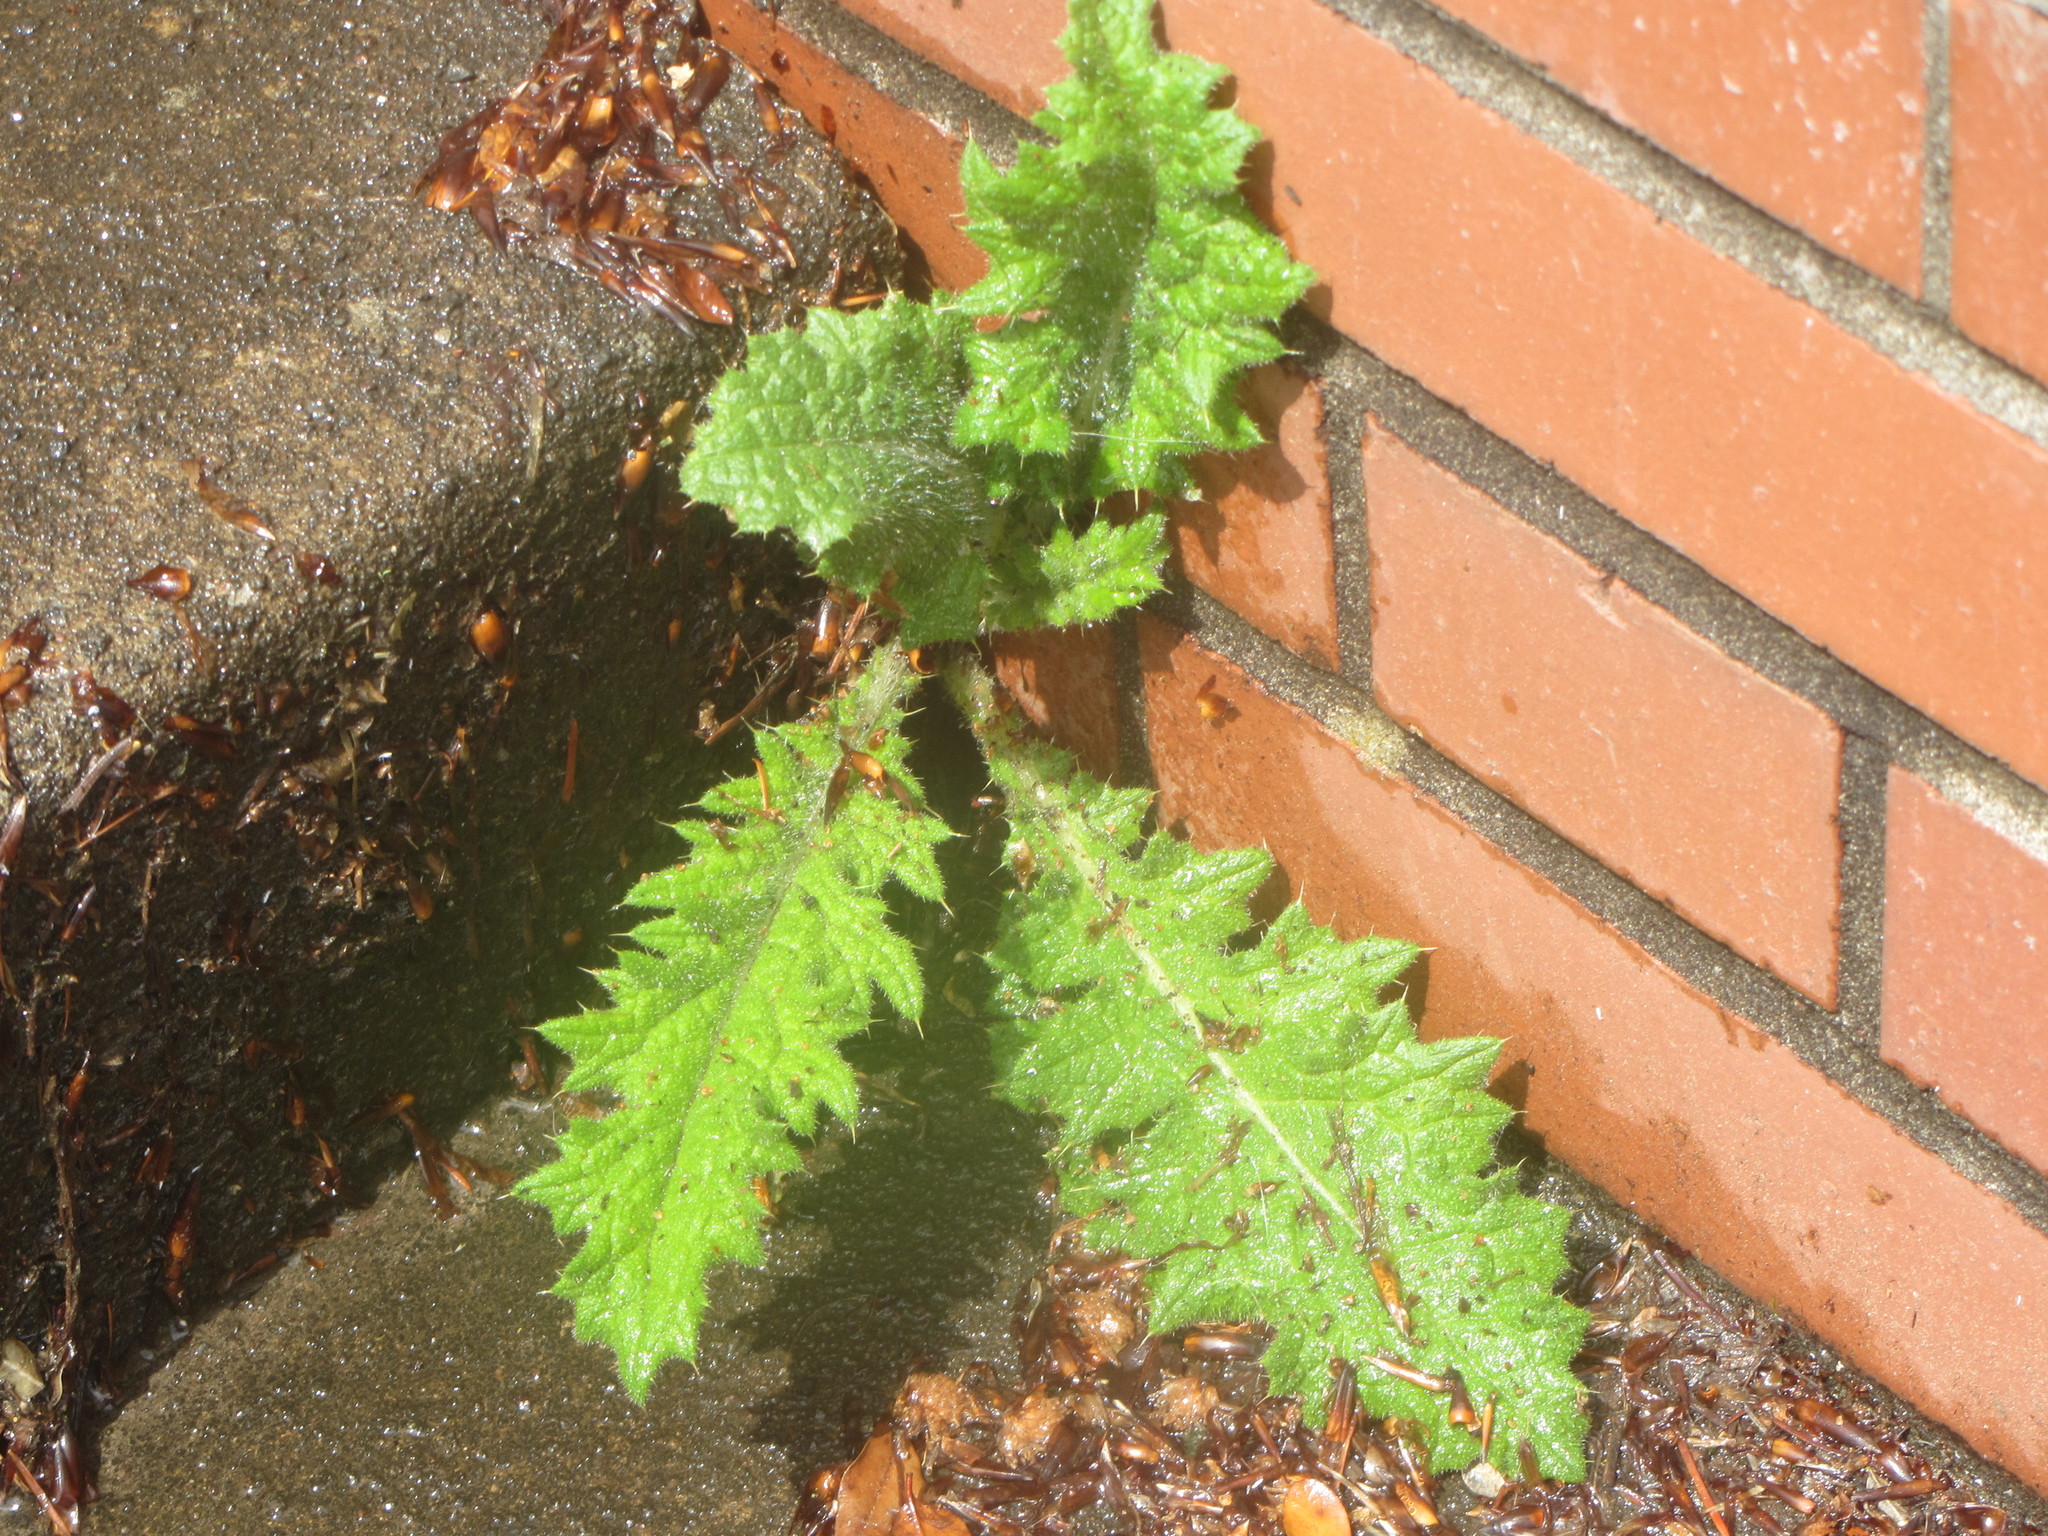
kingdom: Plantae
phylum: Tracheophyta
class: Magnoliopsida
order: Asterales
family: Asteraceae
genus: Cirsium
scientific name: Cirsium vulgare
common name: Bull thistle
